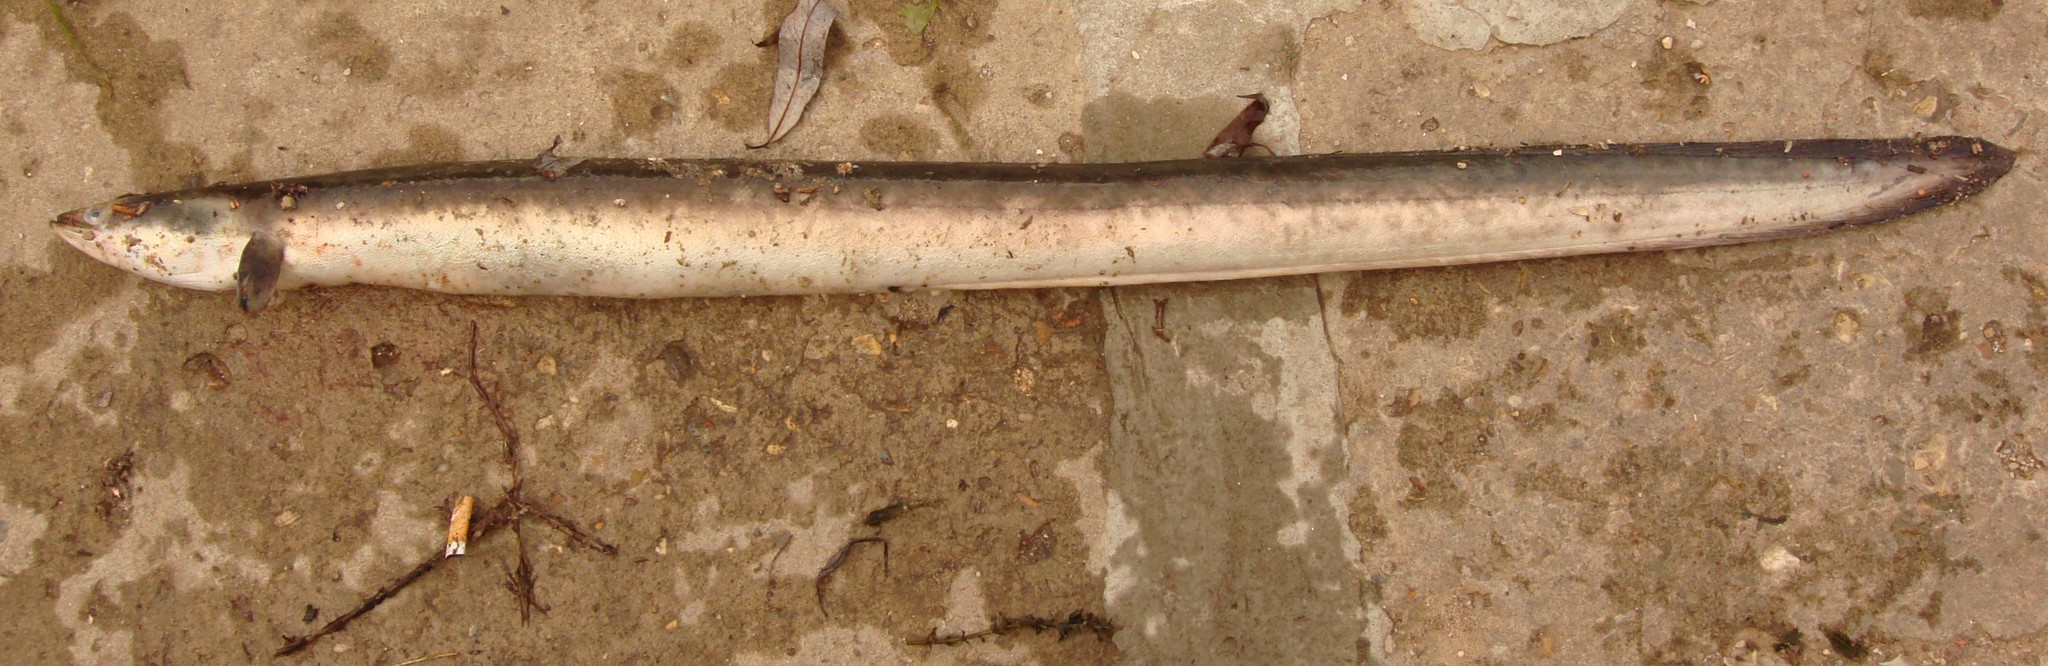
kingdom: Animalia
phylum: Chordata
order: Anguilliformes
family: Anguillidae
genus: Anguilla
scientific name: Anguilla anguilla
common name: European eel
